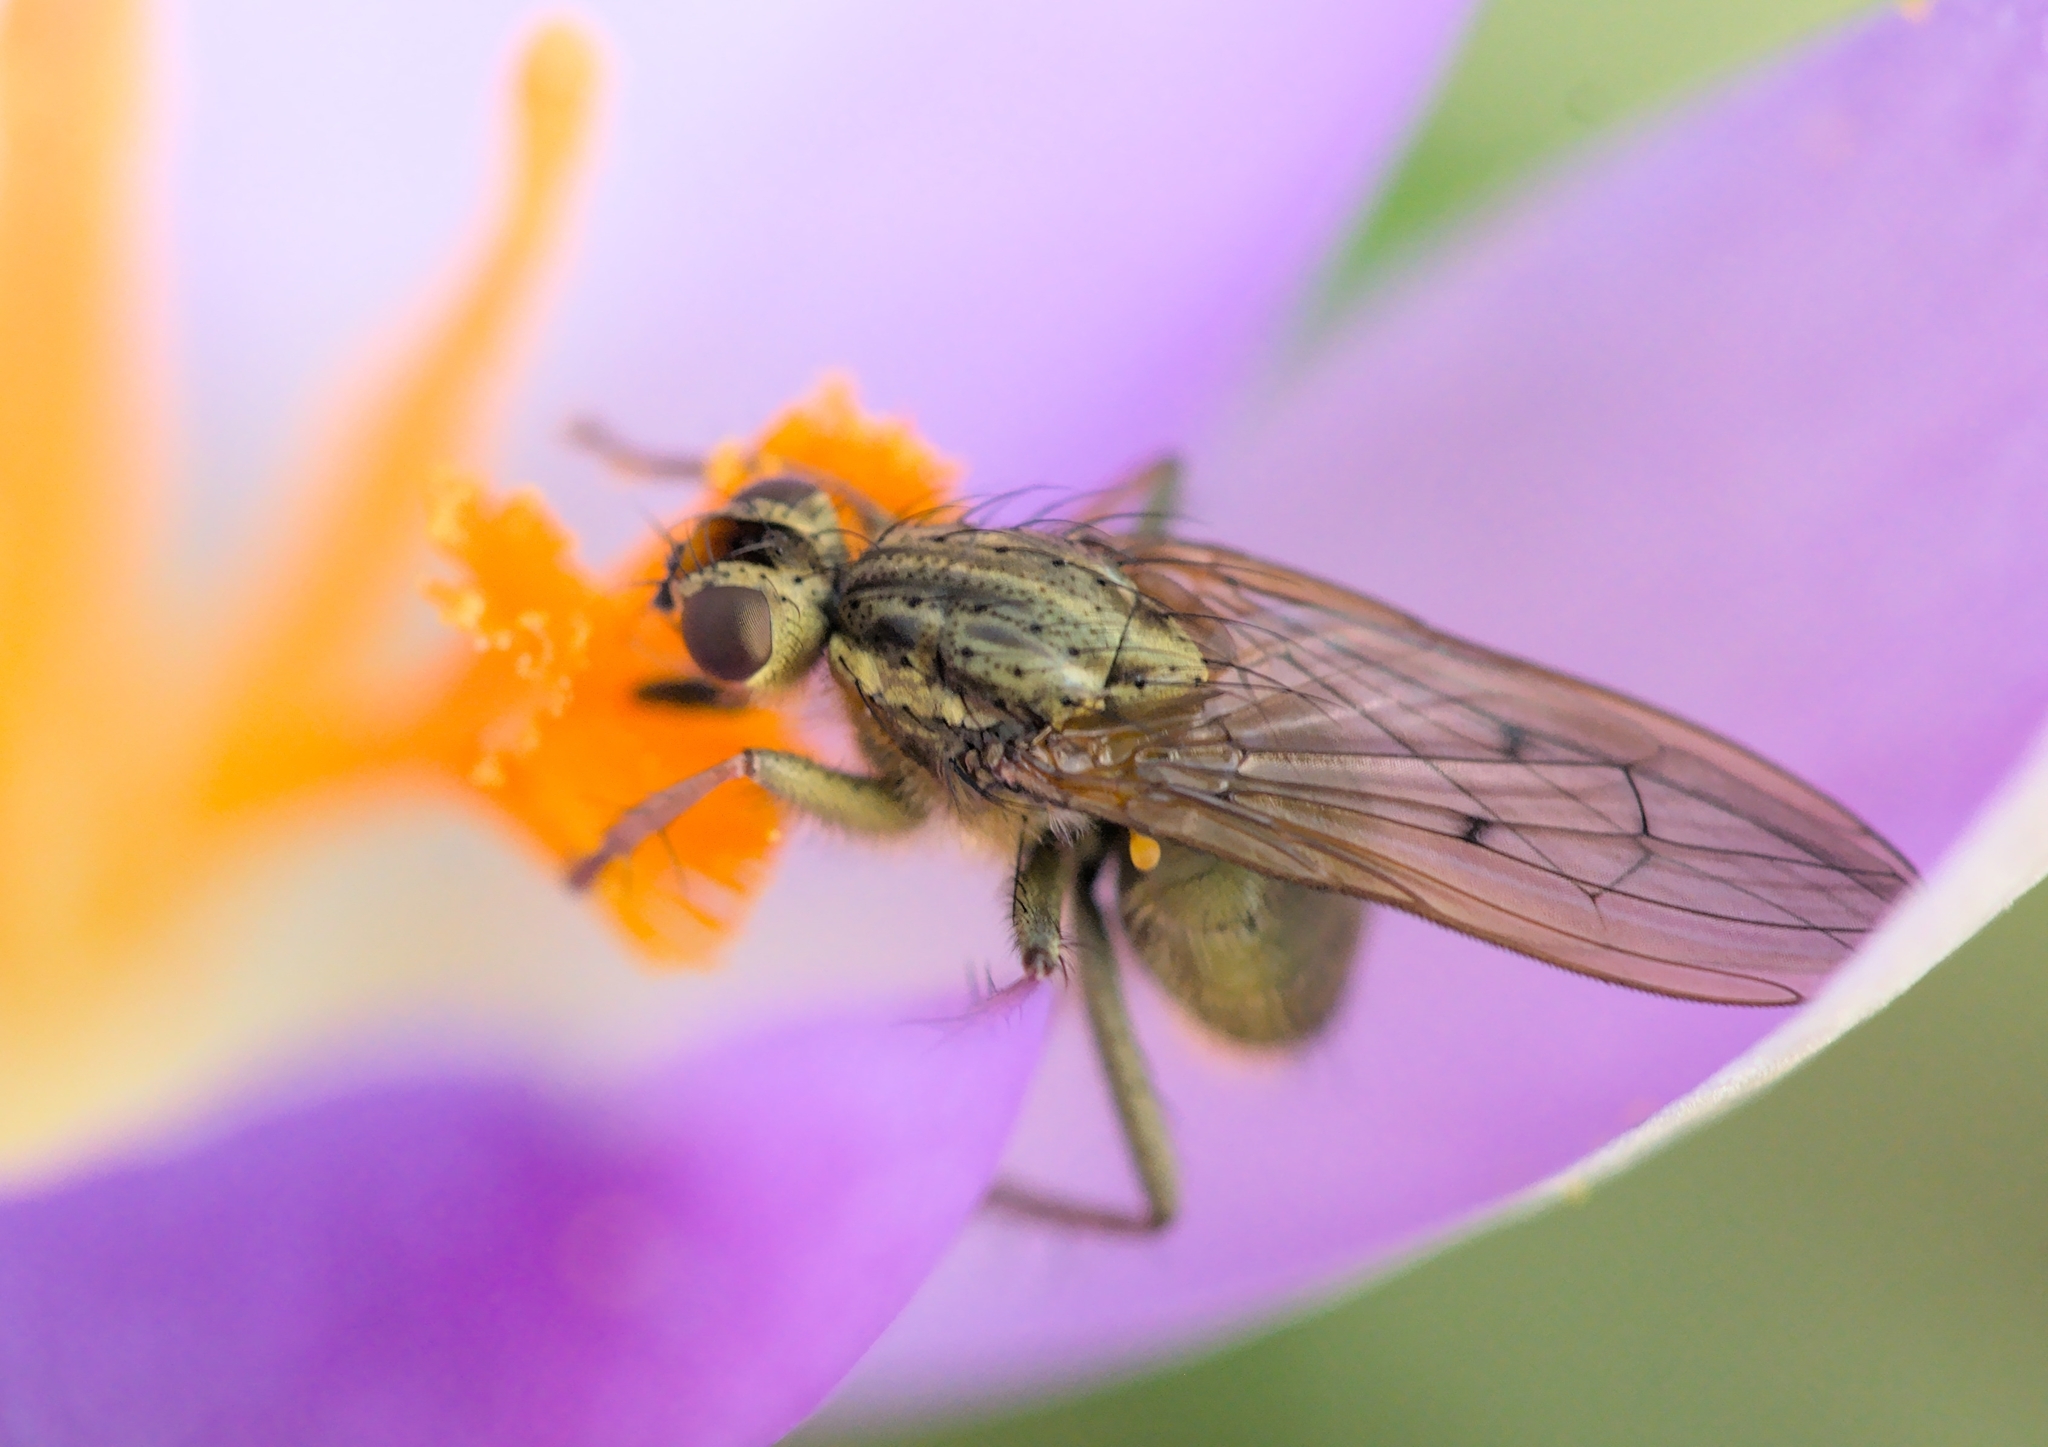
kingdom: Animalia
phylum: Arthropoda
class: Insecta
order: Diptera
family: Scathophagidae
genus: Scathophaga
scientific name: Scathophaga stercoraria
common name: Yellow dung fly
